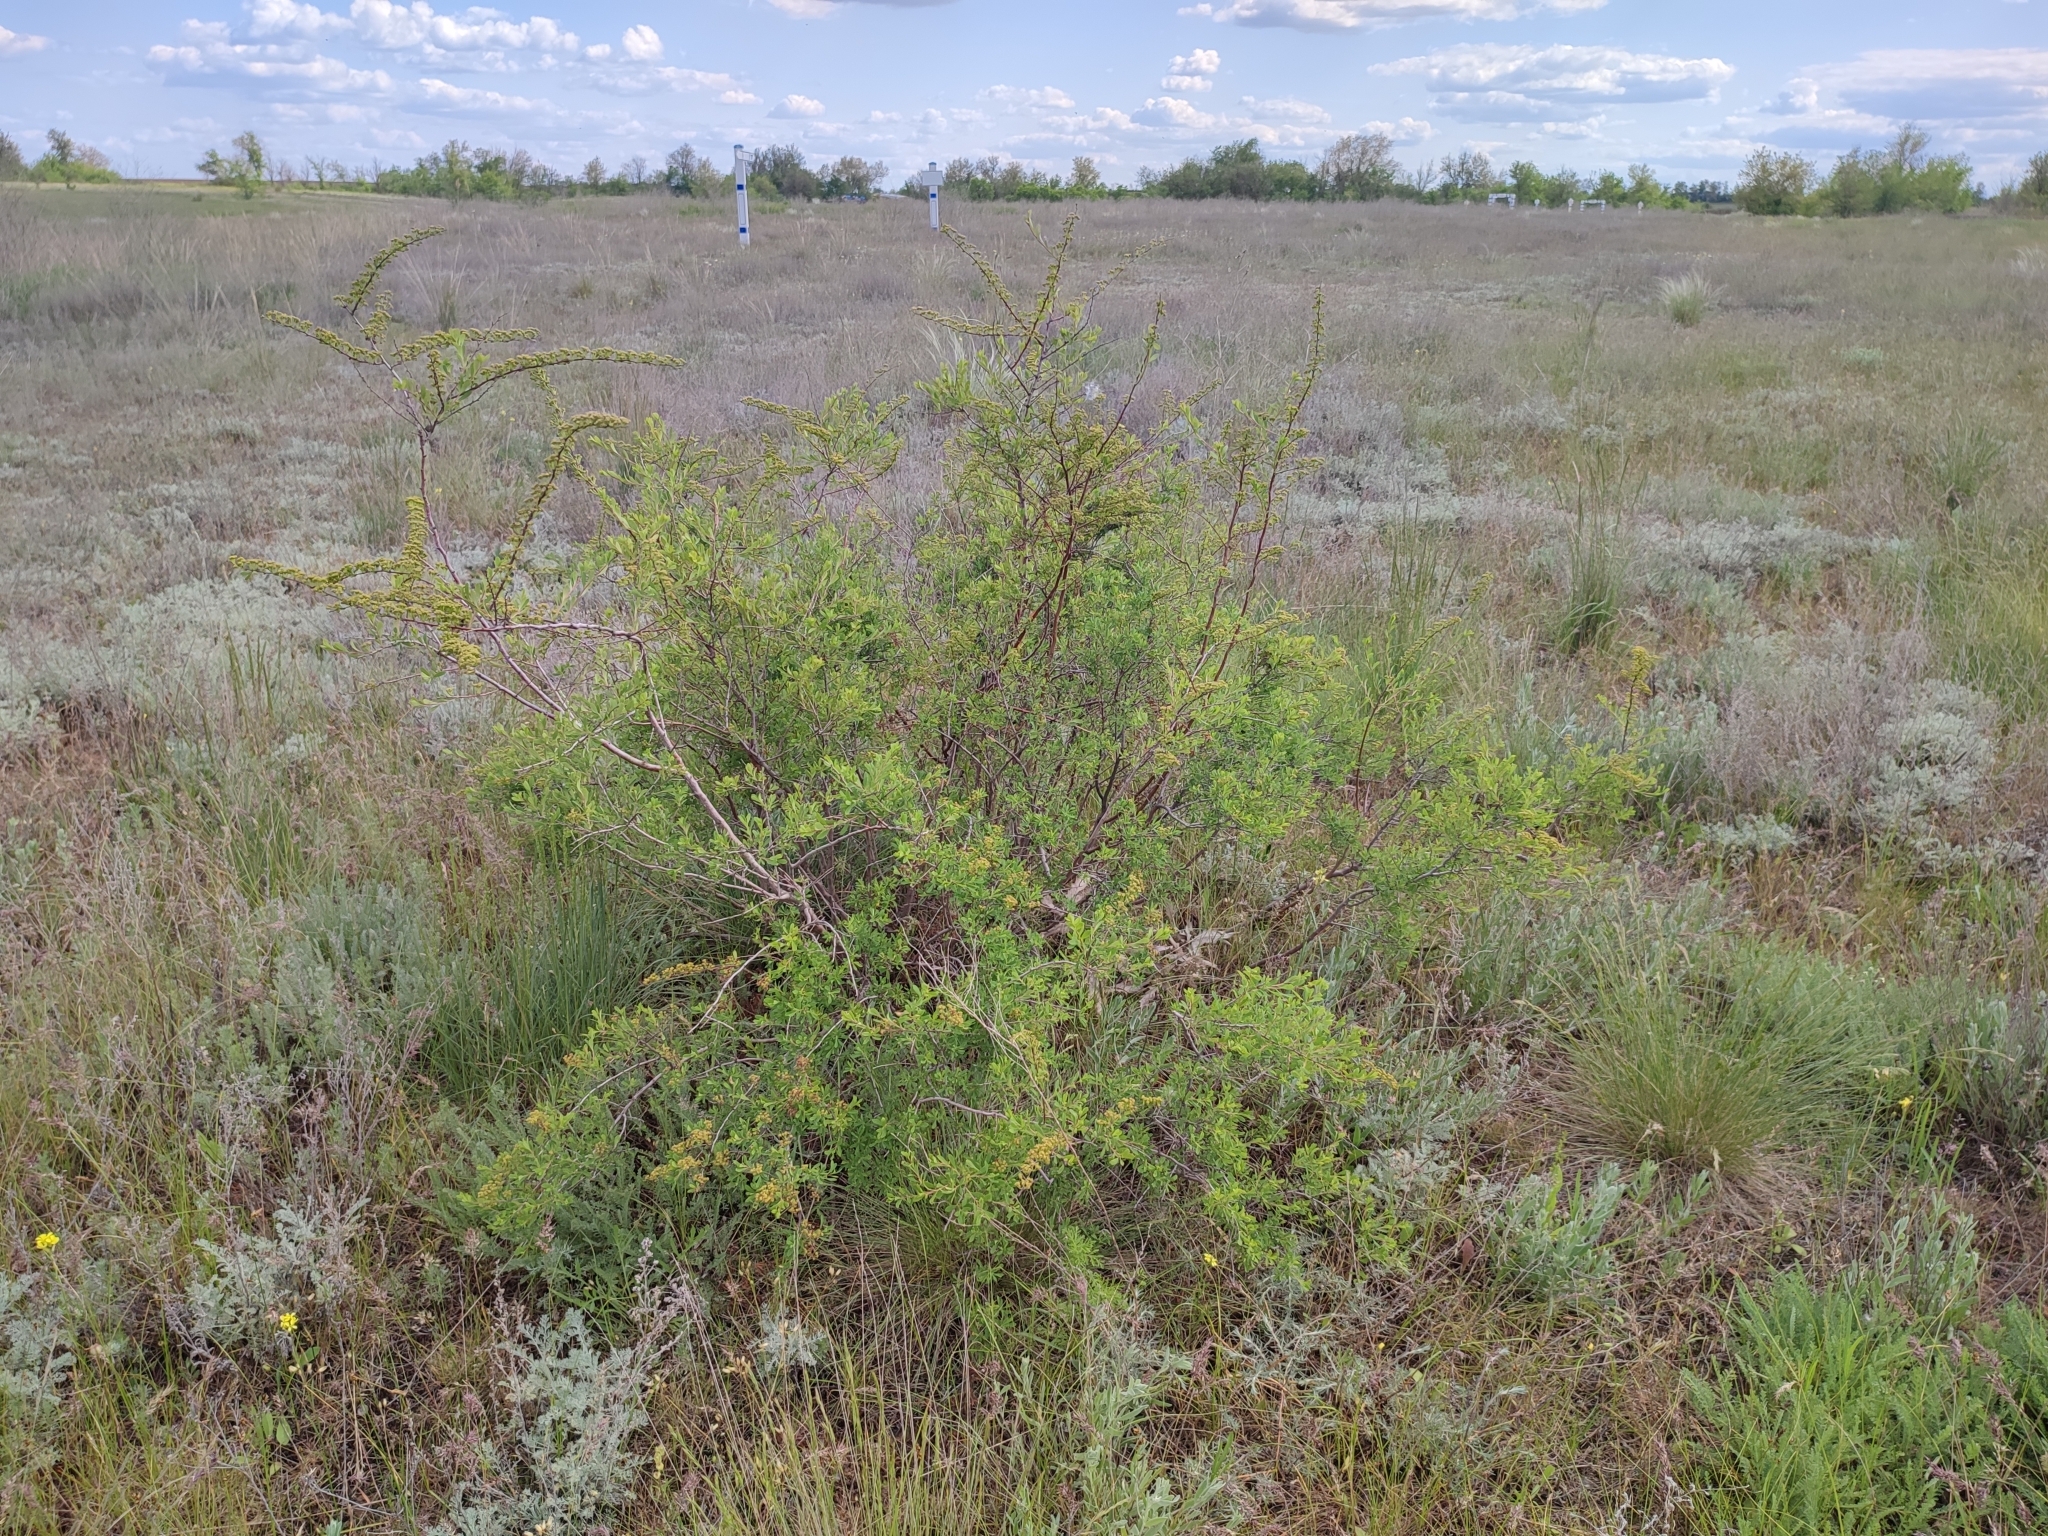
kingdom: Plantae
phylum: Tracheophyta
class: Magnoliopsida
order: Rosales
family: Rosaceae
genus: Spiraea
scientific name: Spiraea hypericifolia
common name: Iberian spirea
